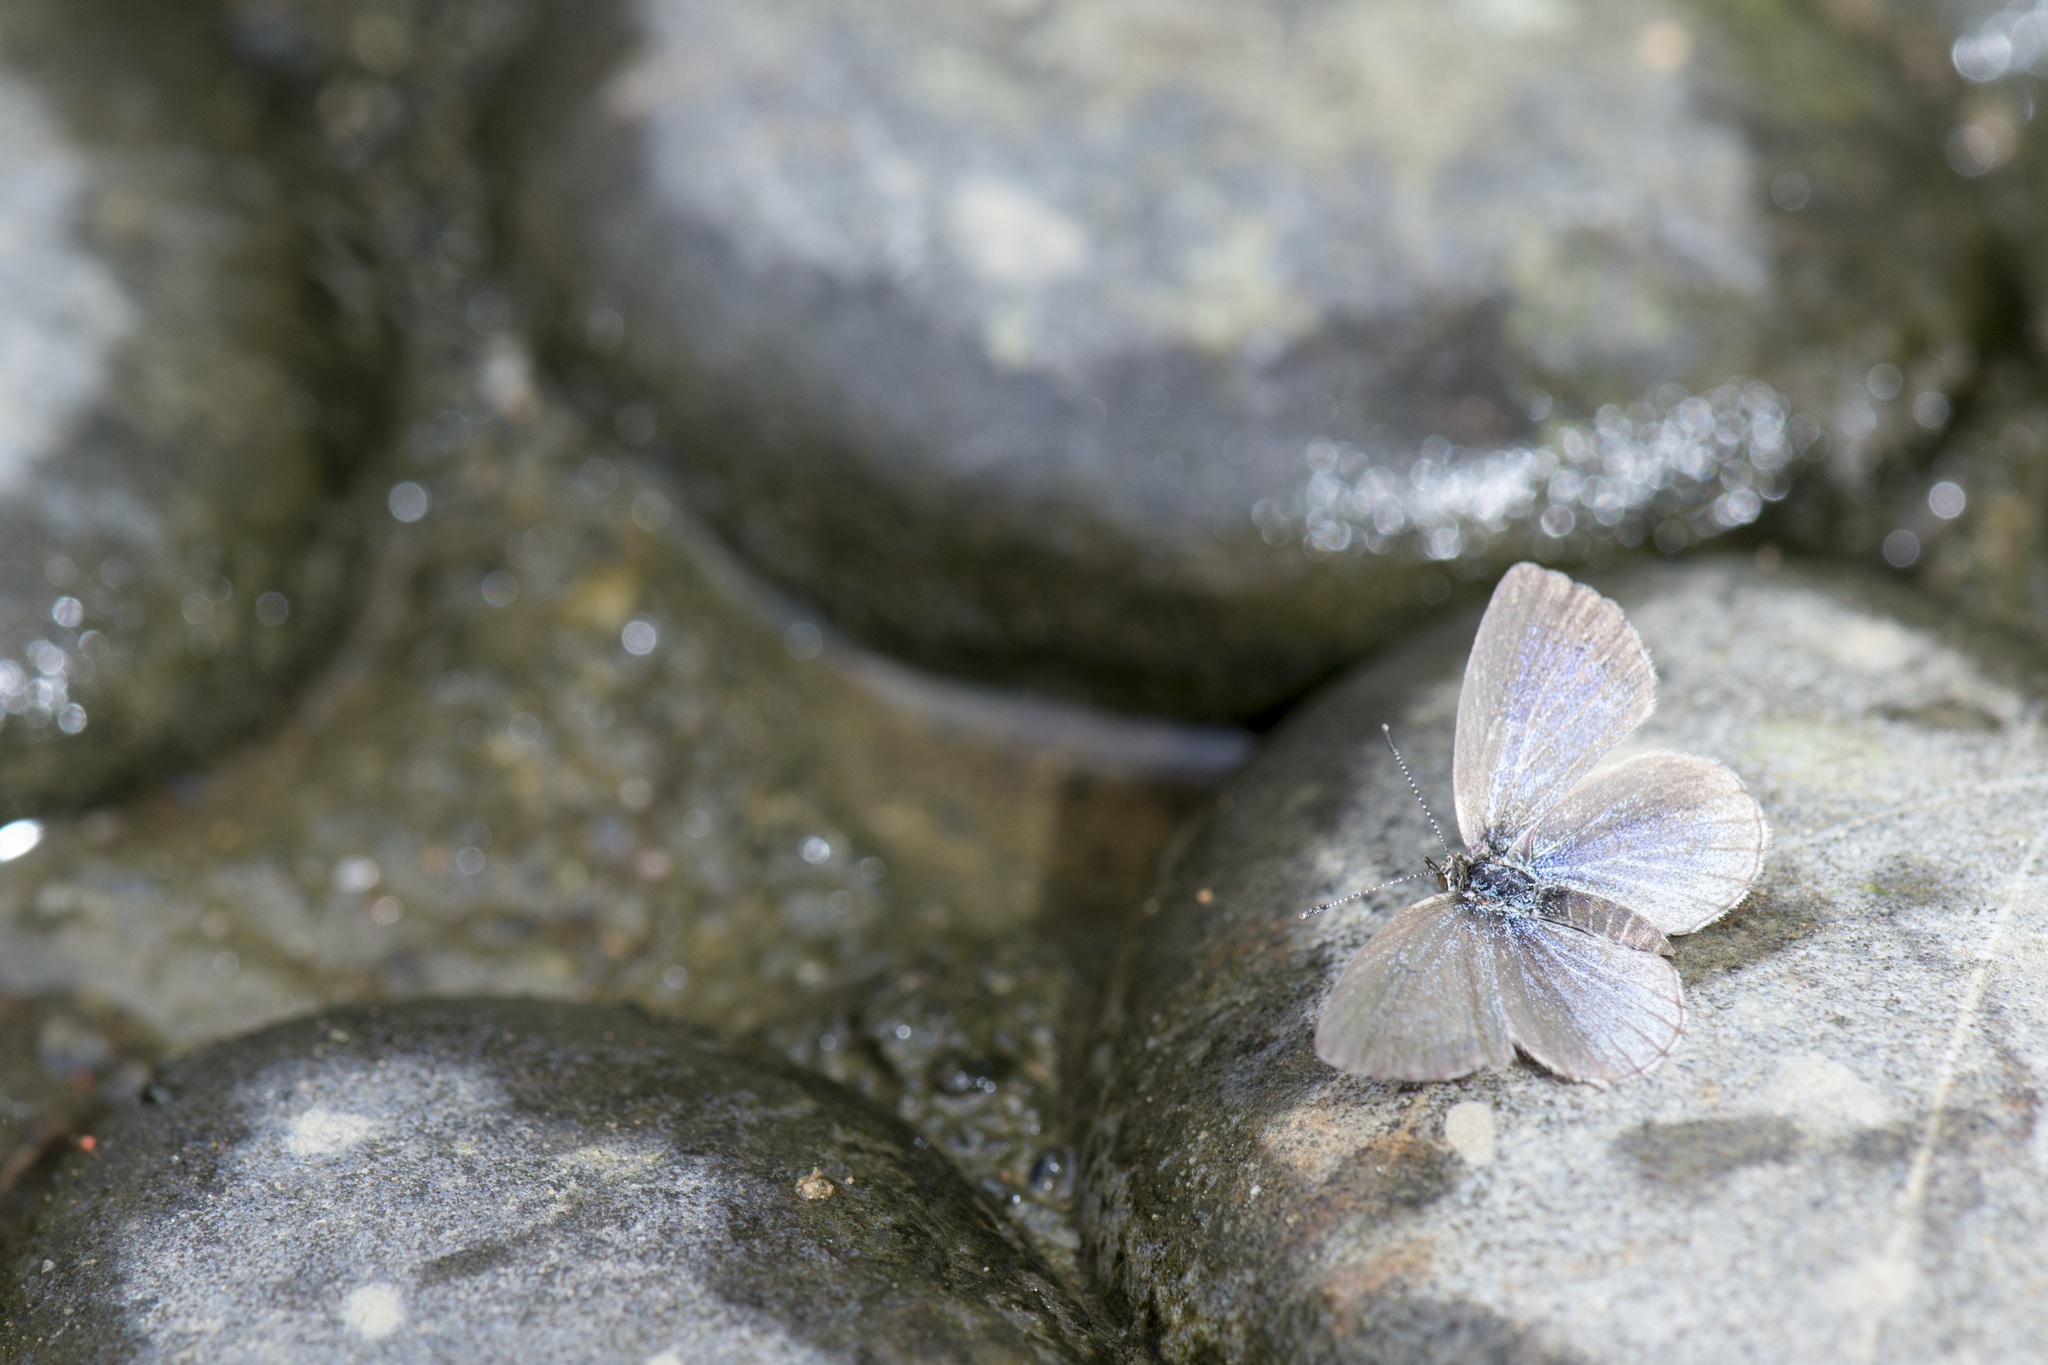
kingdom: Animalia
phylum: Arthropoda
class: Insecta
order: Lepidoptera
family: Lycaenidae
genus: Pseudozizeeria
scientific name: Pseudozizeeria maha
